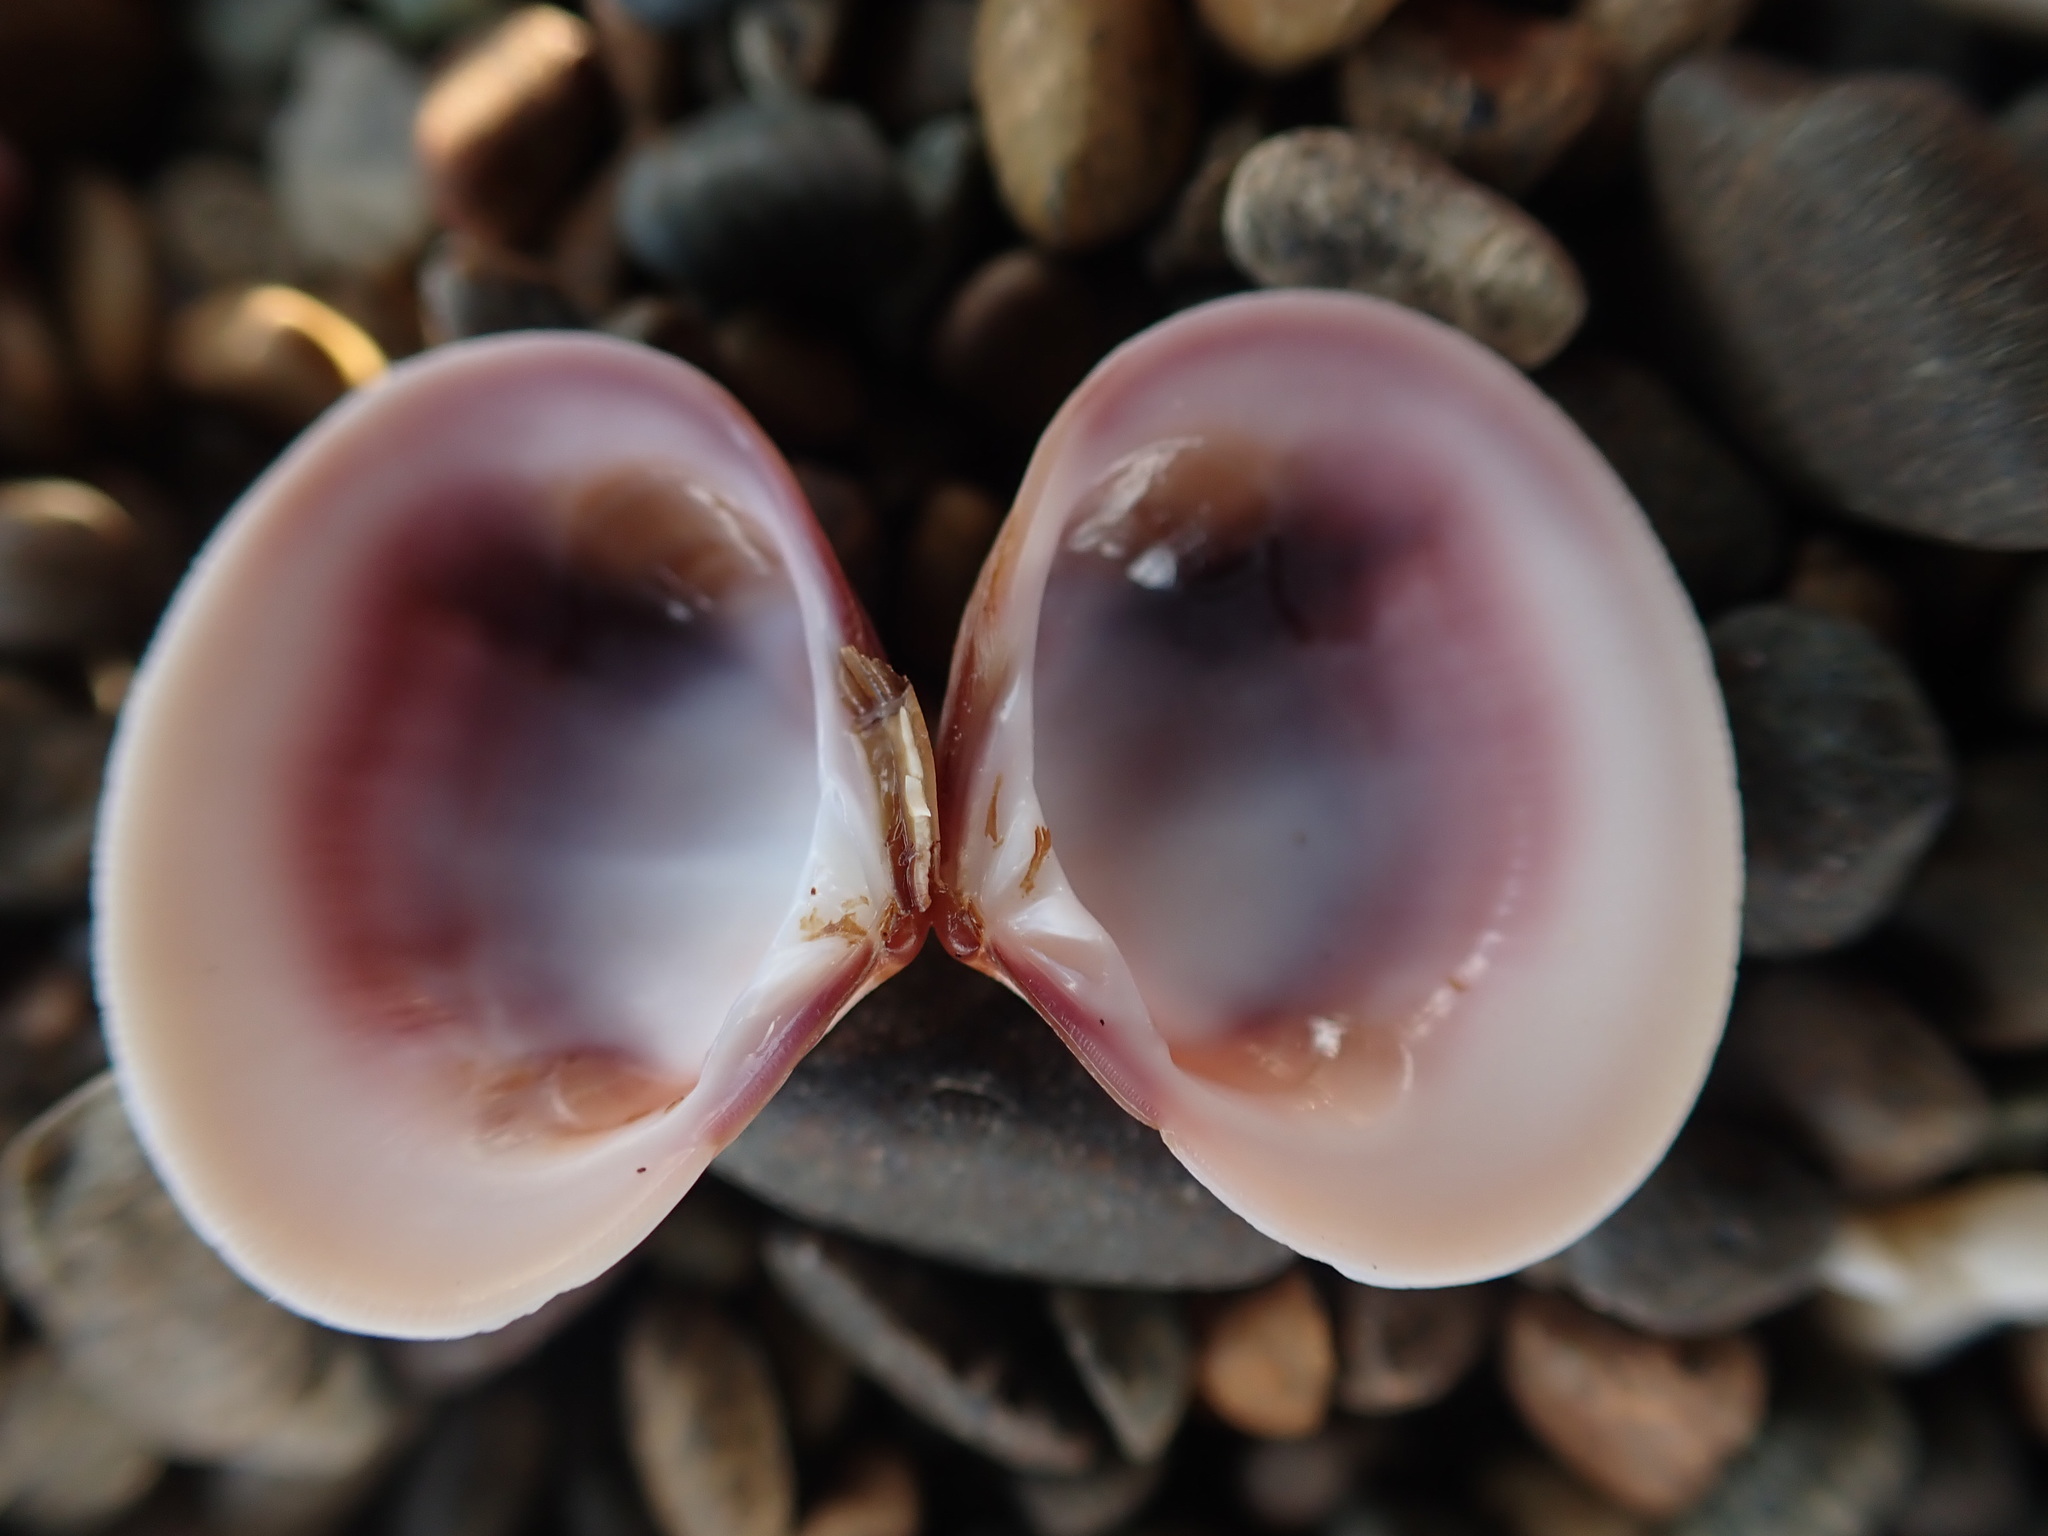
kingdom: Animalia
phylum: Mollusca
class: Bivalvia
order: Venerida
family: Veneridae
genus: Tawera
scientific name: Tawera spissa
